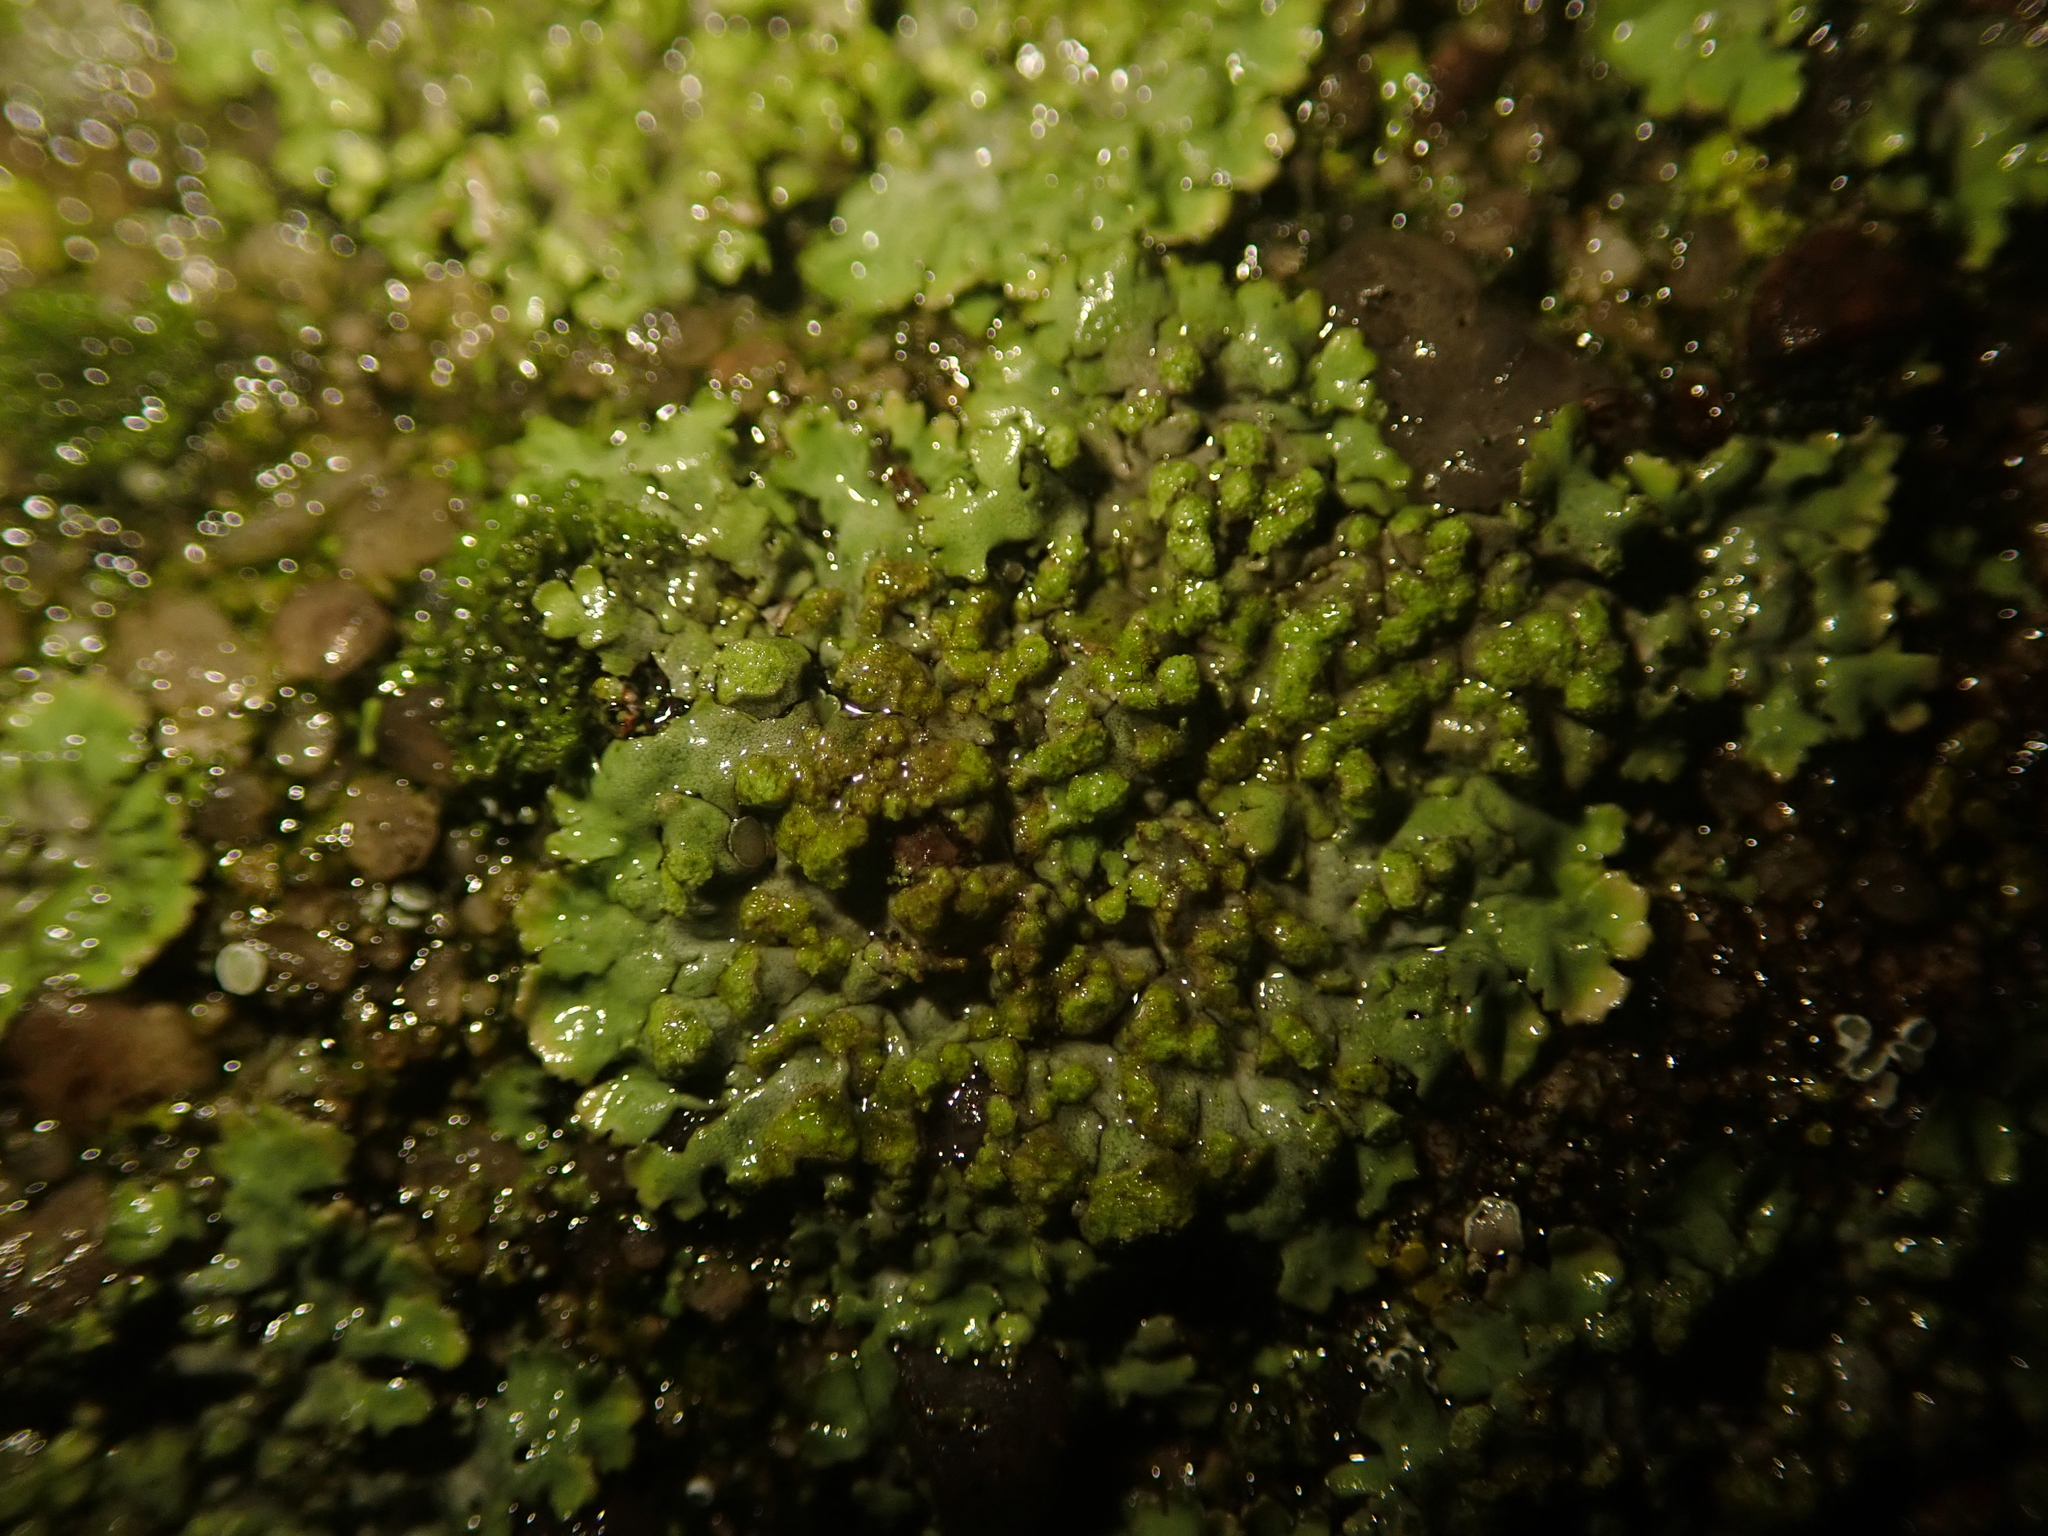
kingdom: Fungi
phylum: Ascomycota
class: Lecanoromycetes
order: Caliciales
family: Physciaceae
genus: Phaeophyscia
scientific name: Phaeophyscia orbicularis
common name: Mealy shadow lichen
